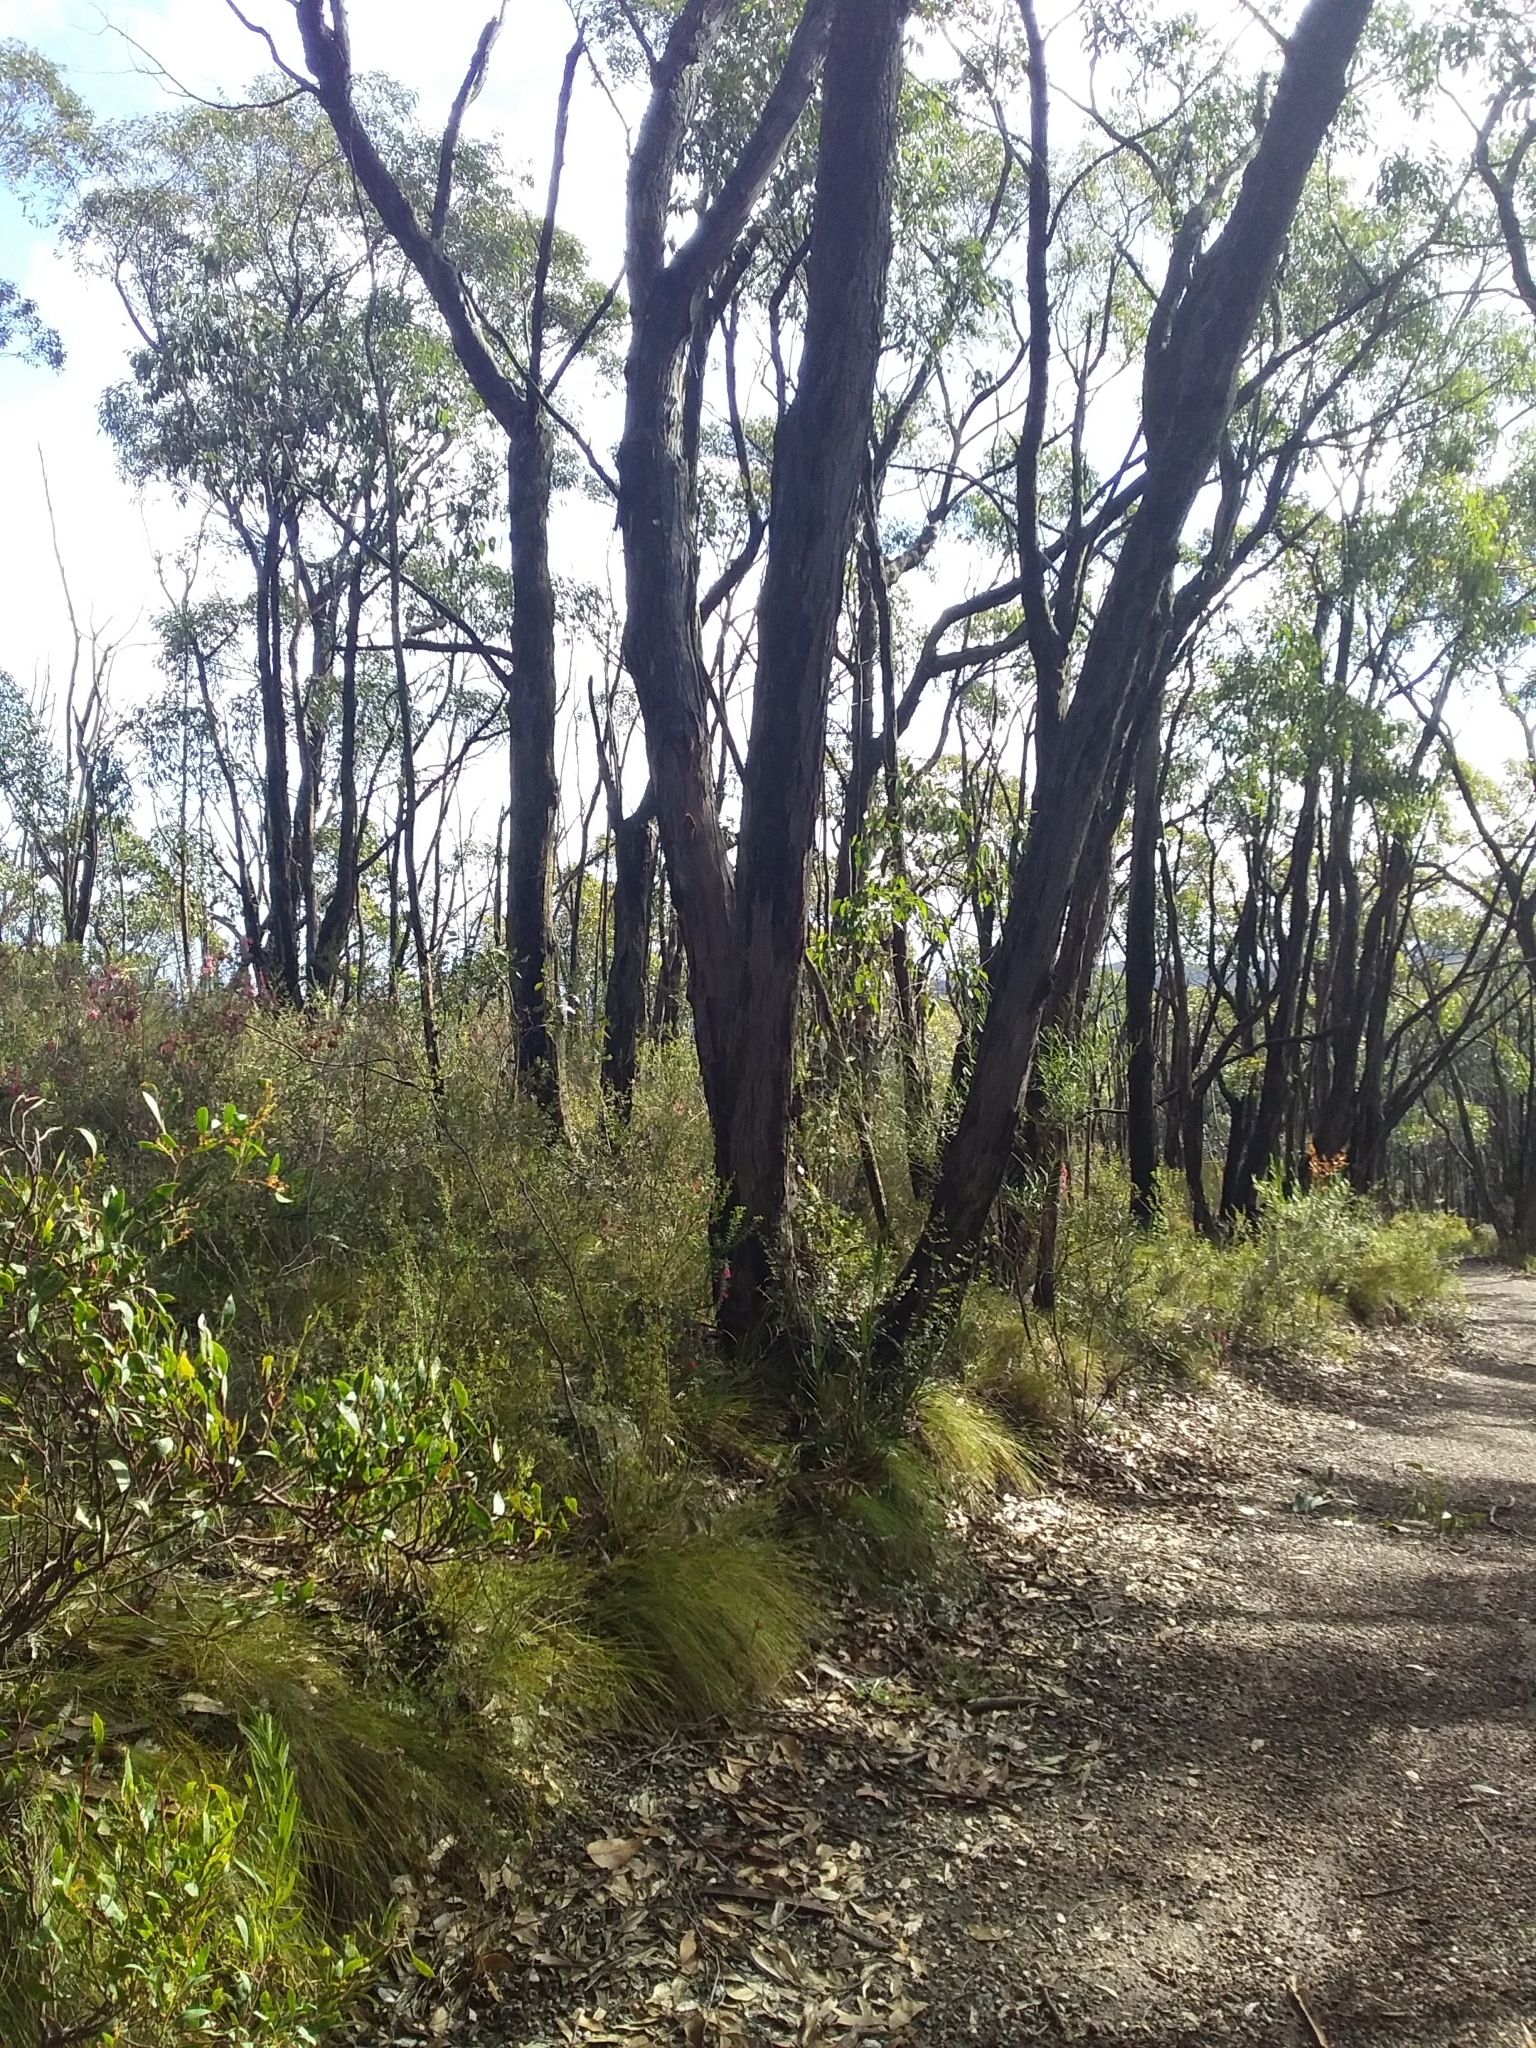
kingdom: Plantae
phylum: Tracheophyta
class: Magnoliopsida
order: Myrtales
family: Myrtaceae
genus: Eucalyptus
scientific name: Eucalyptus baxteri
